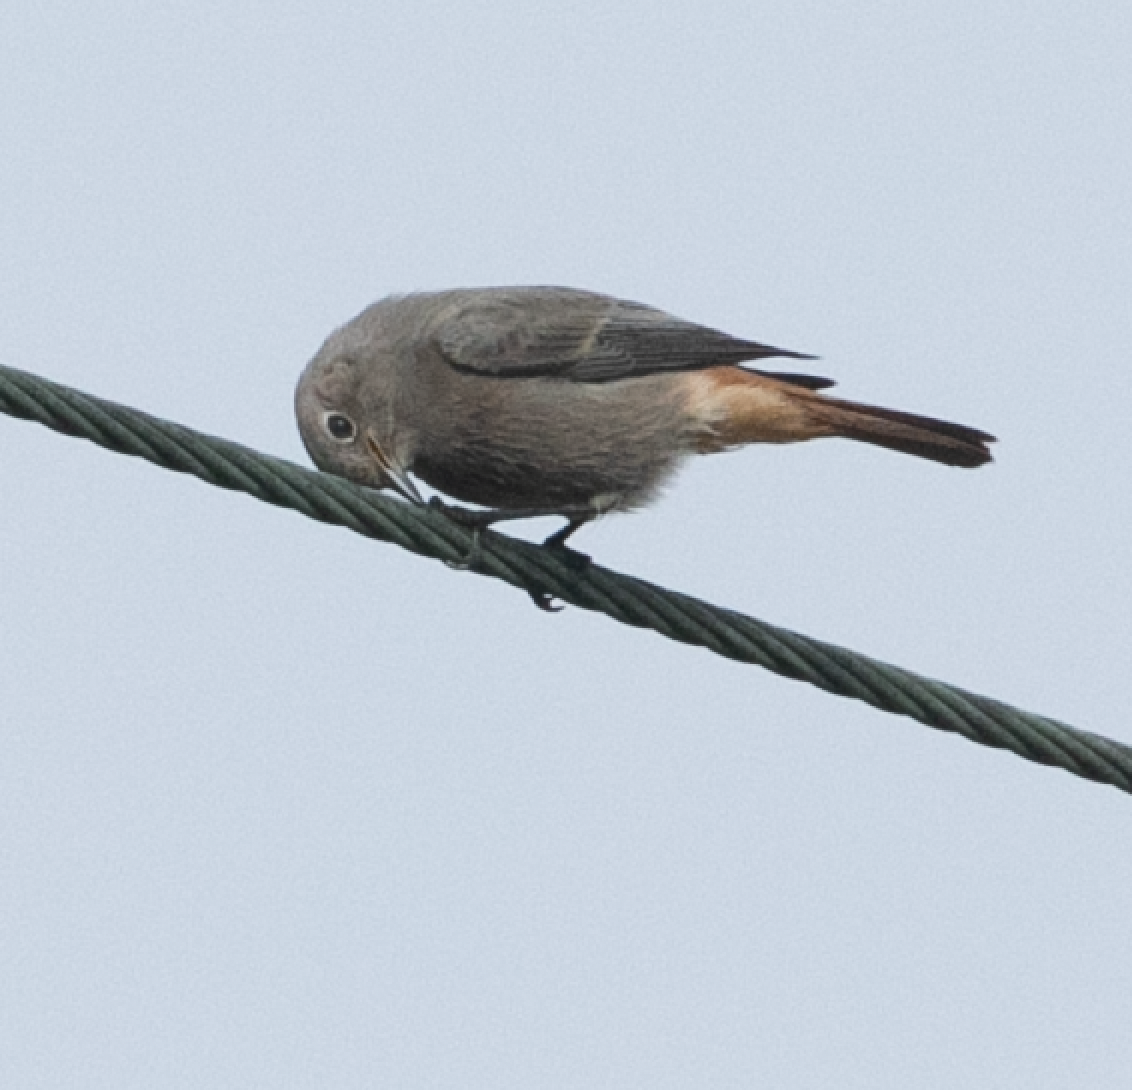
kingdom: Animalia
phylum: Chordata
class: Aves
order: Passeriformes
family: Muscicapidae
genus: Phoenicurus
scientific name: Phoenicurus ochruros
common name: Black redstart
